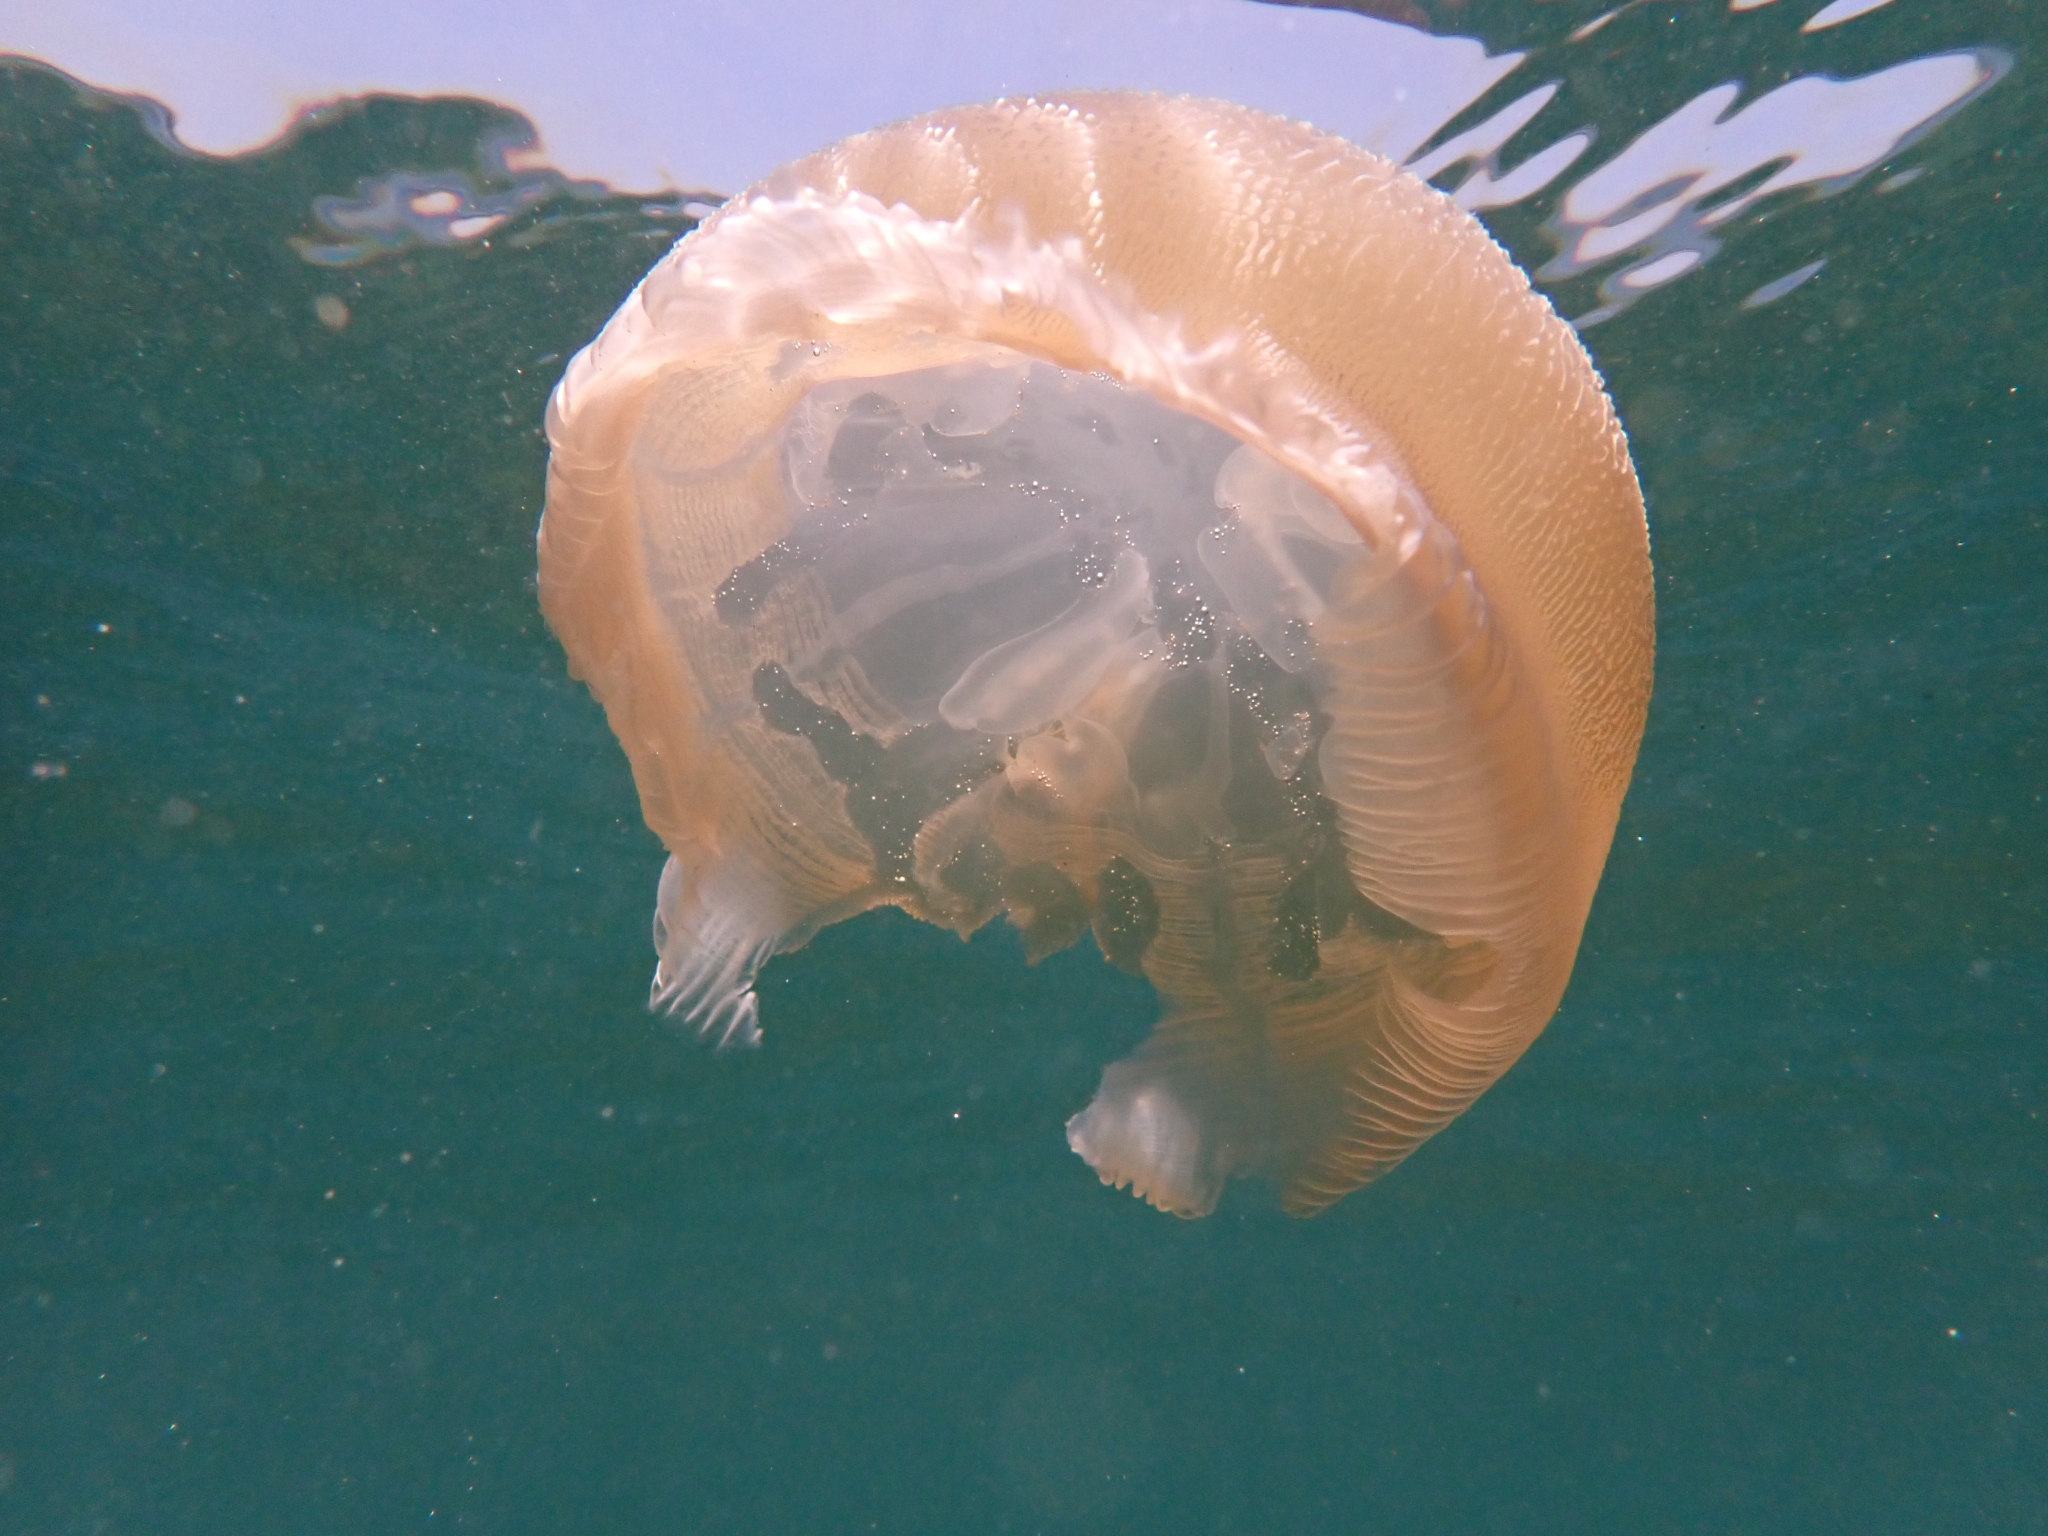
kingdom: Animalia
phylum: Cnidaria
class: Scyphozoa
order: Rhizostomeae
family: Catostylidae
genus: Catostylus
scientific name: Catostylus mosaicus
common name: Blue blubber
